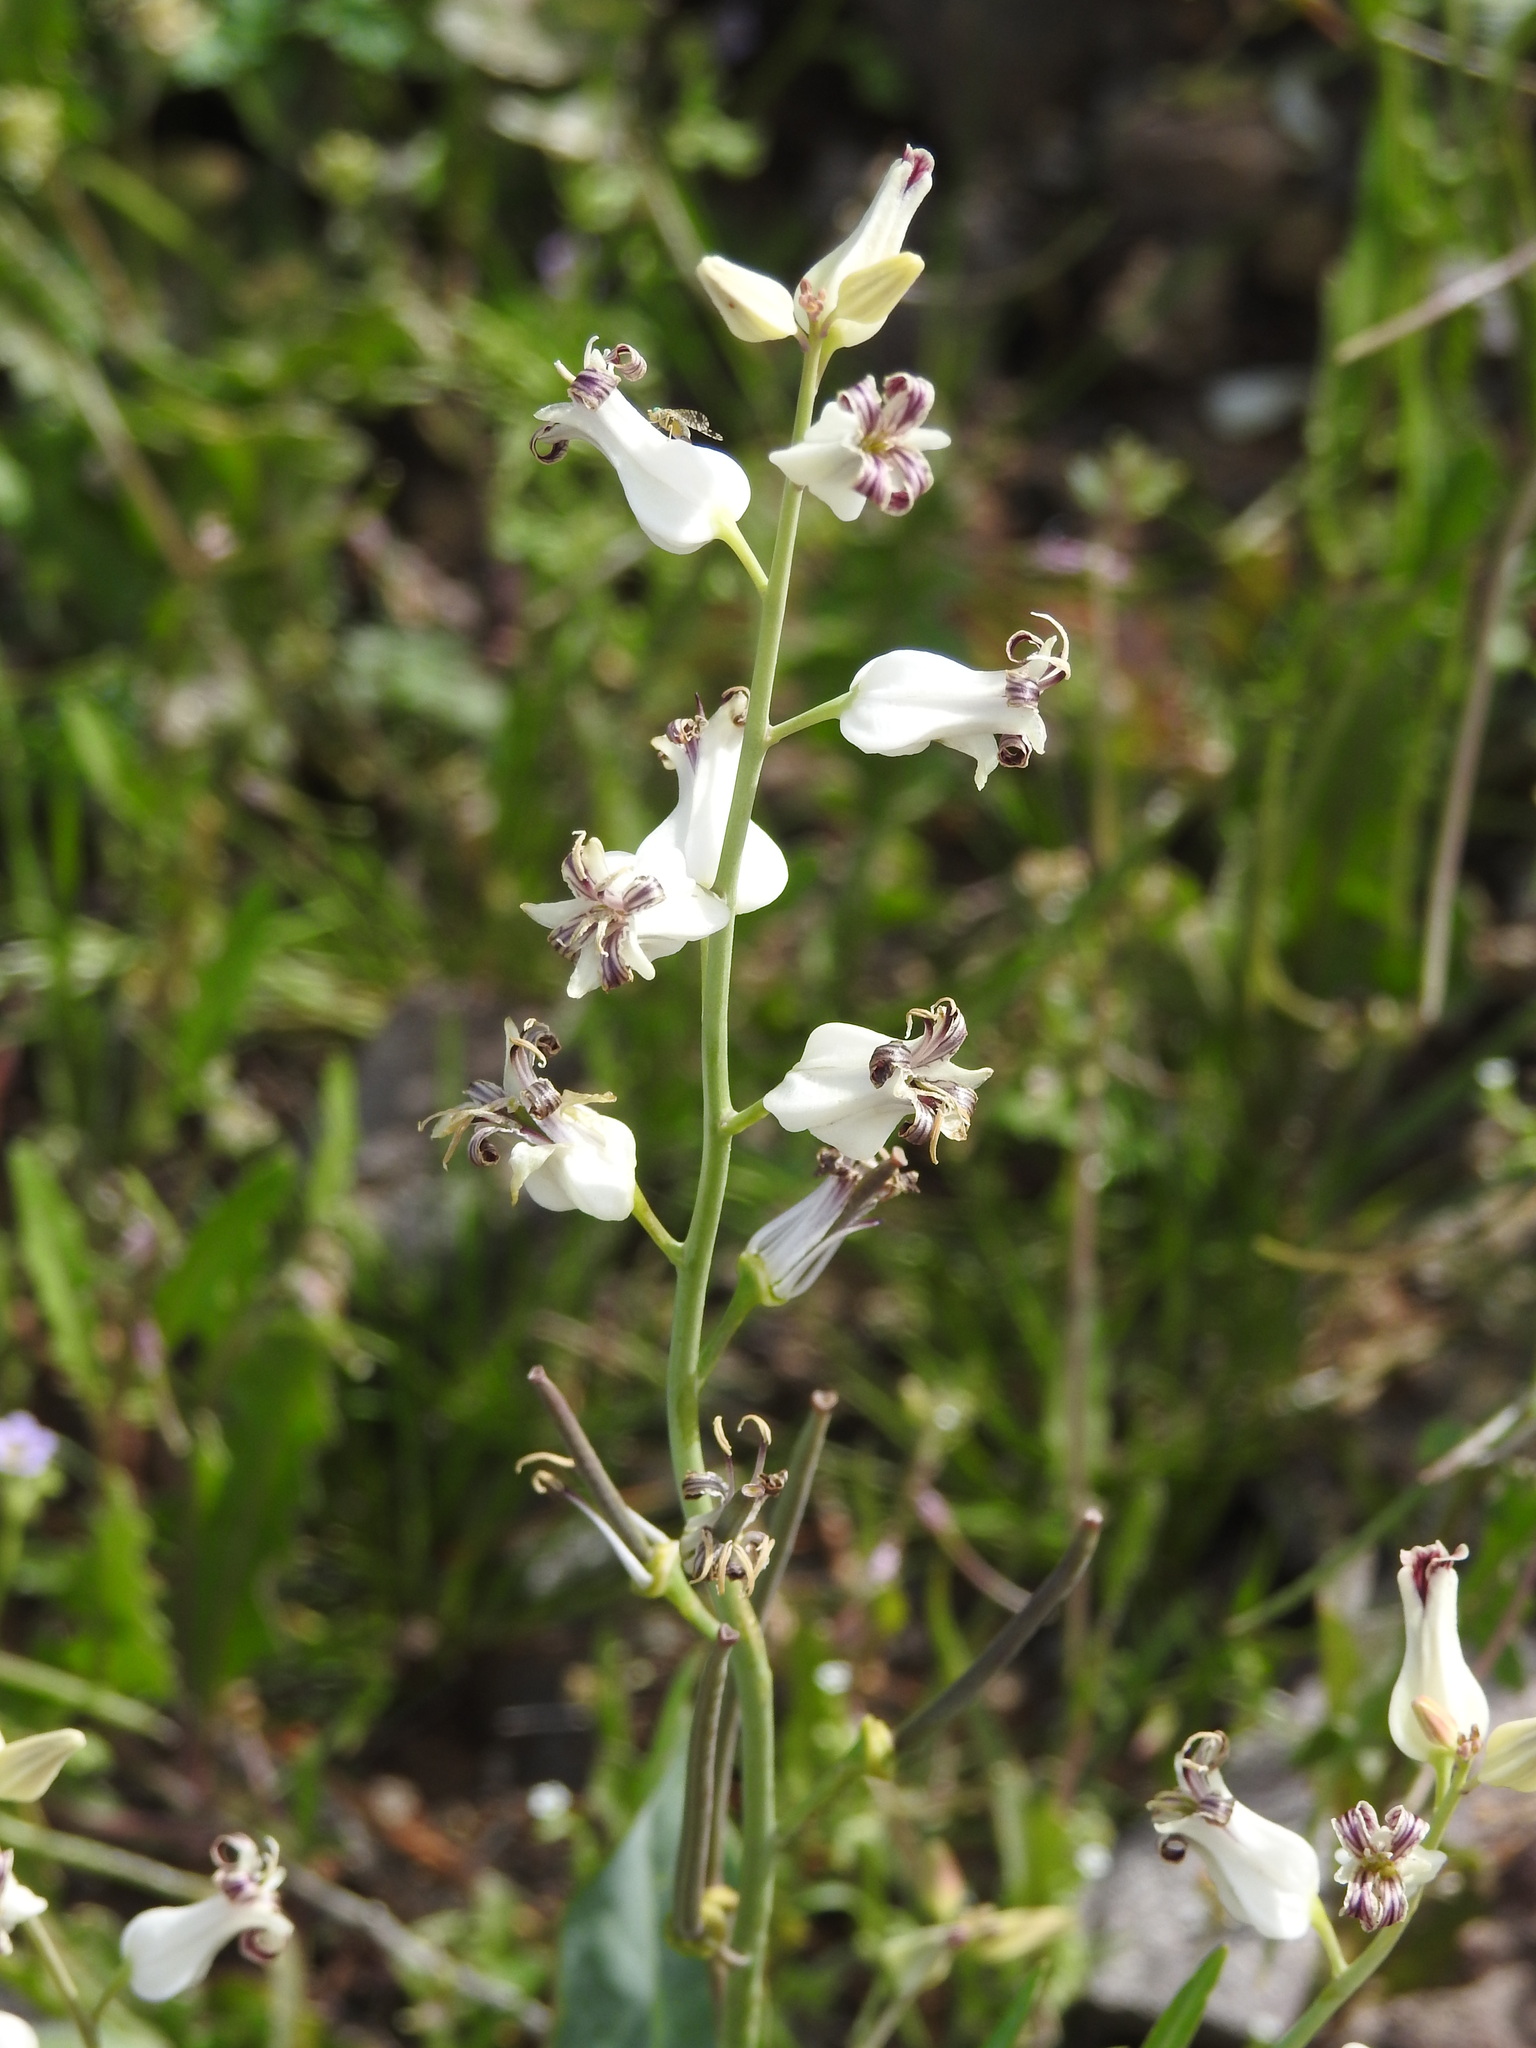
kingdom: Plantae
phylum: Tracheophyta
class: Magnoliopsida
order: Brassicales
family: Brassicaceae
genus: Streptanthus
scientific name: Streptanthus carinatus
